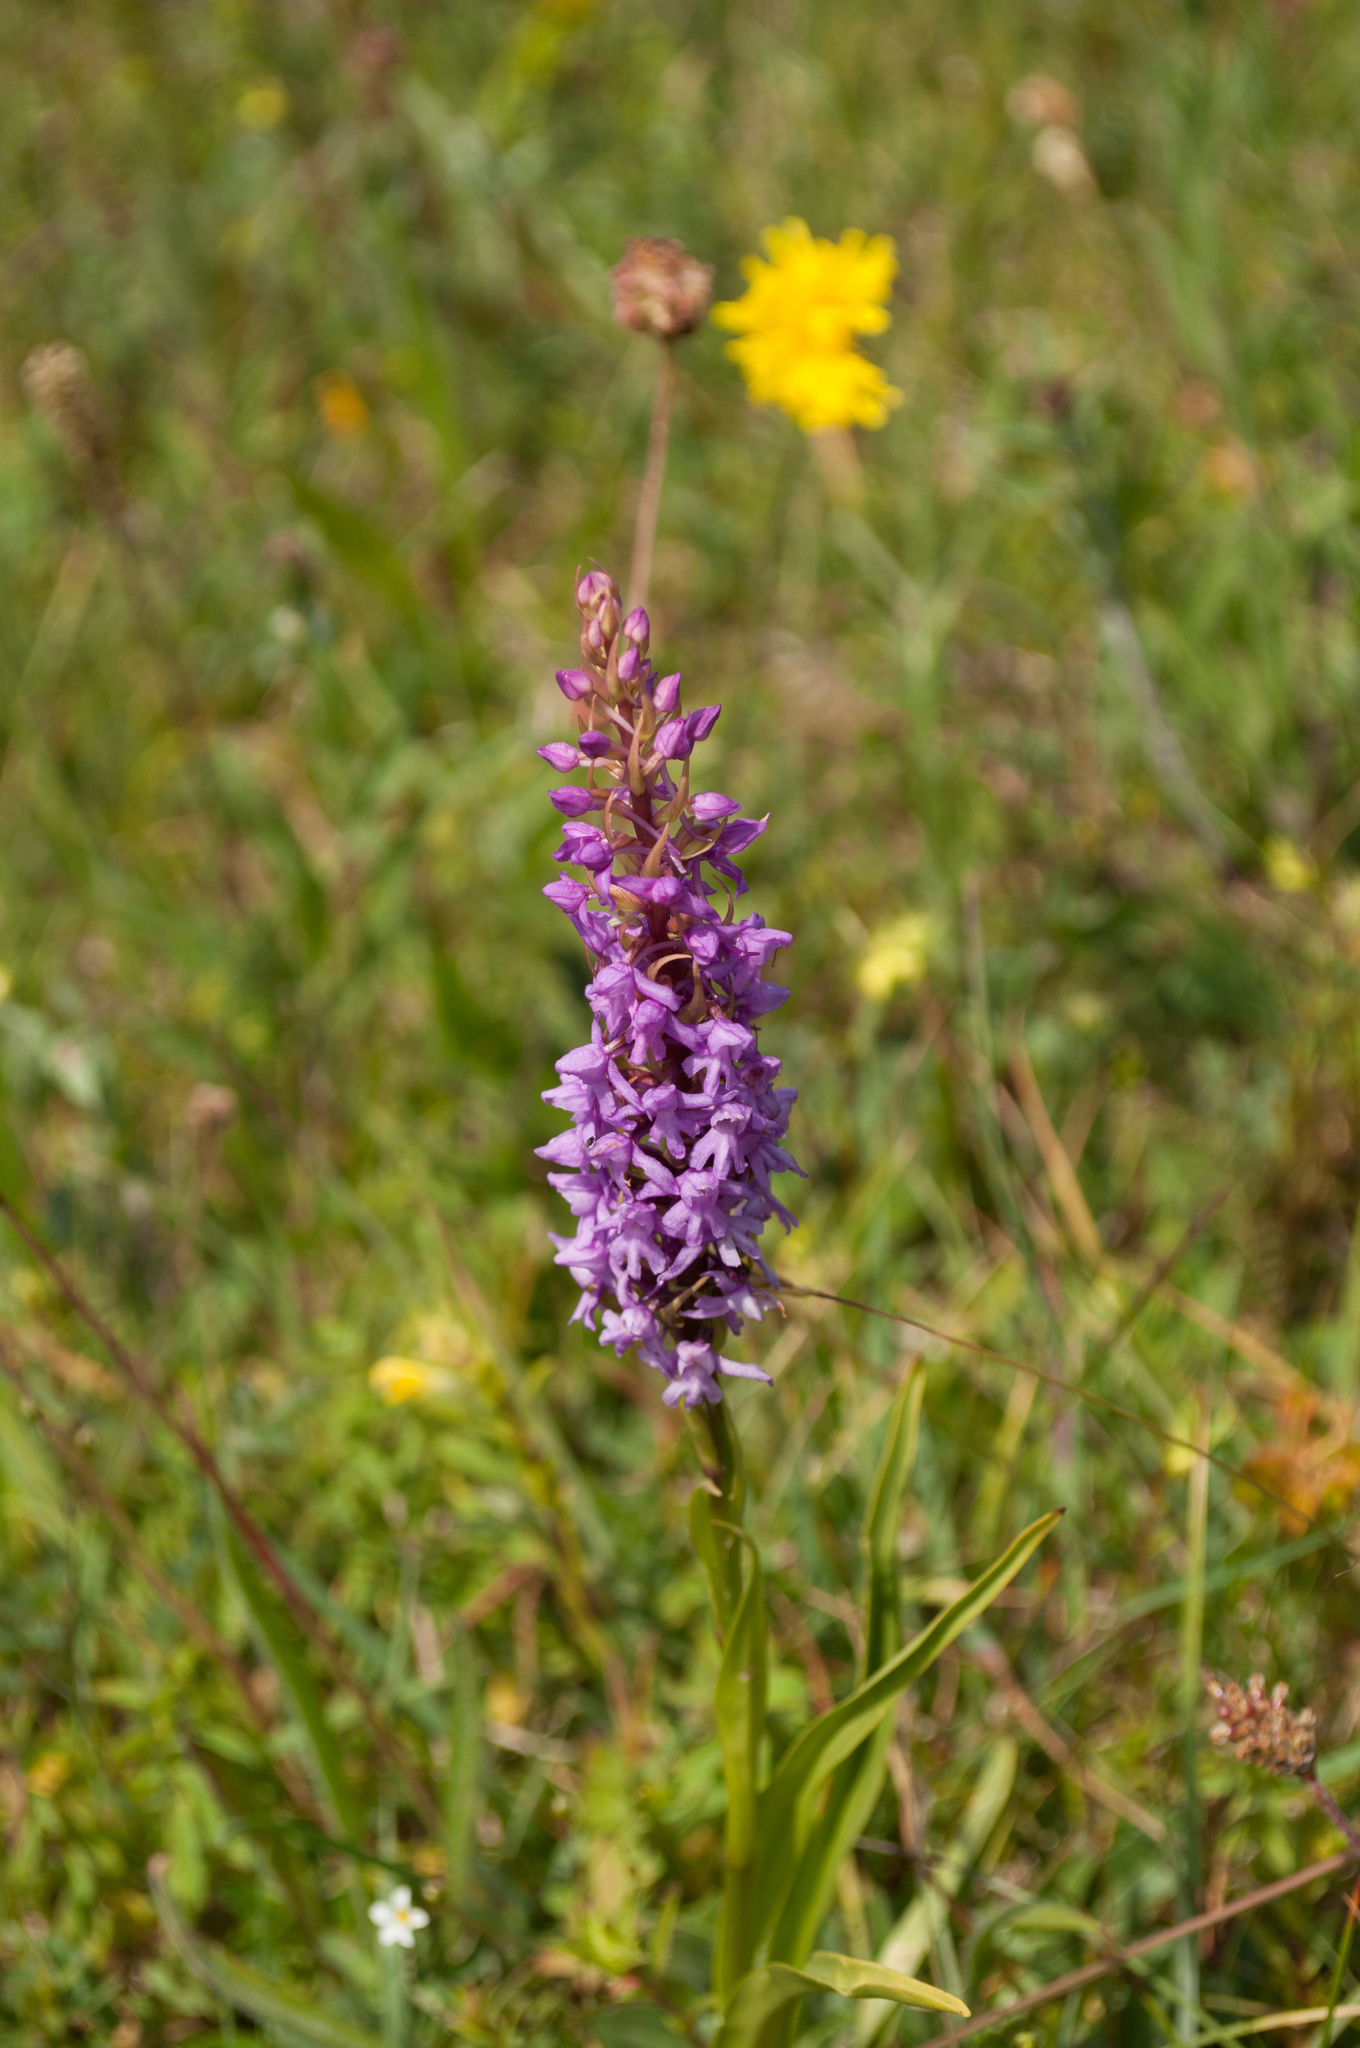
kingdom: Plantae
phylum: Tracheophyta
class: Liliopsida
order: Asparagales
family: Orchidaceae
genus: Gymnadenia
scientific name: Gymnadenia conopsea
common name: Fragrant orchid
